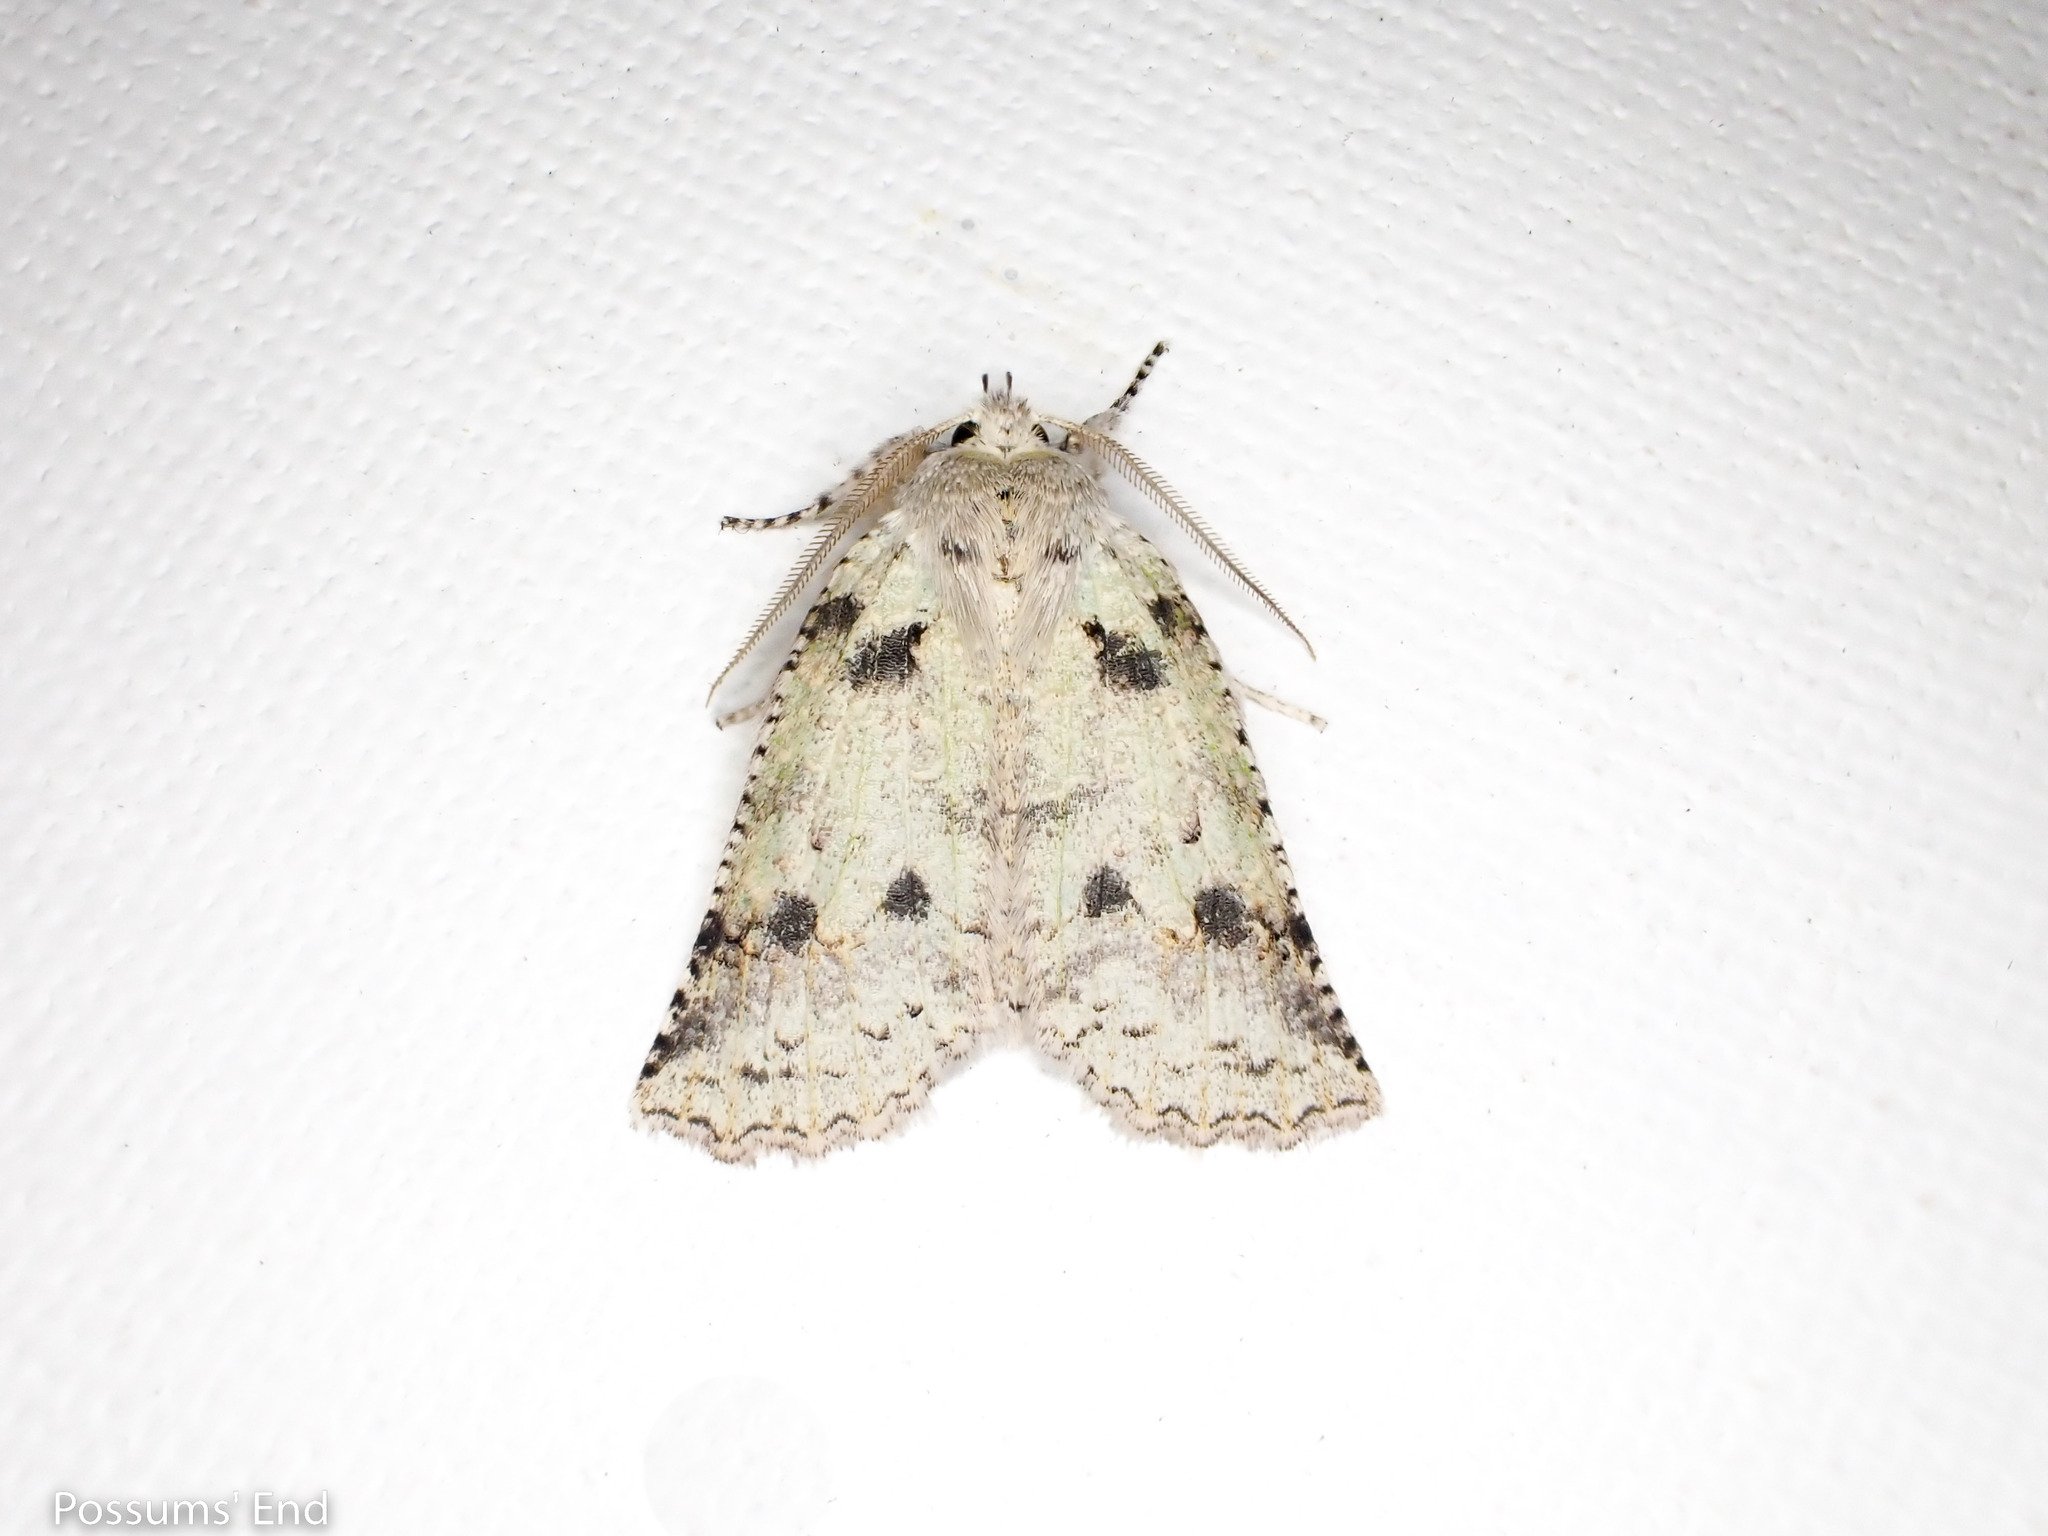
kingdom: Animalia
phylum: Arthropoda
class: Insecta
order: Lepidoptera
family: Geometridae
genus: Declana
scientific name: Declana floccosa
